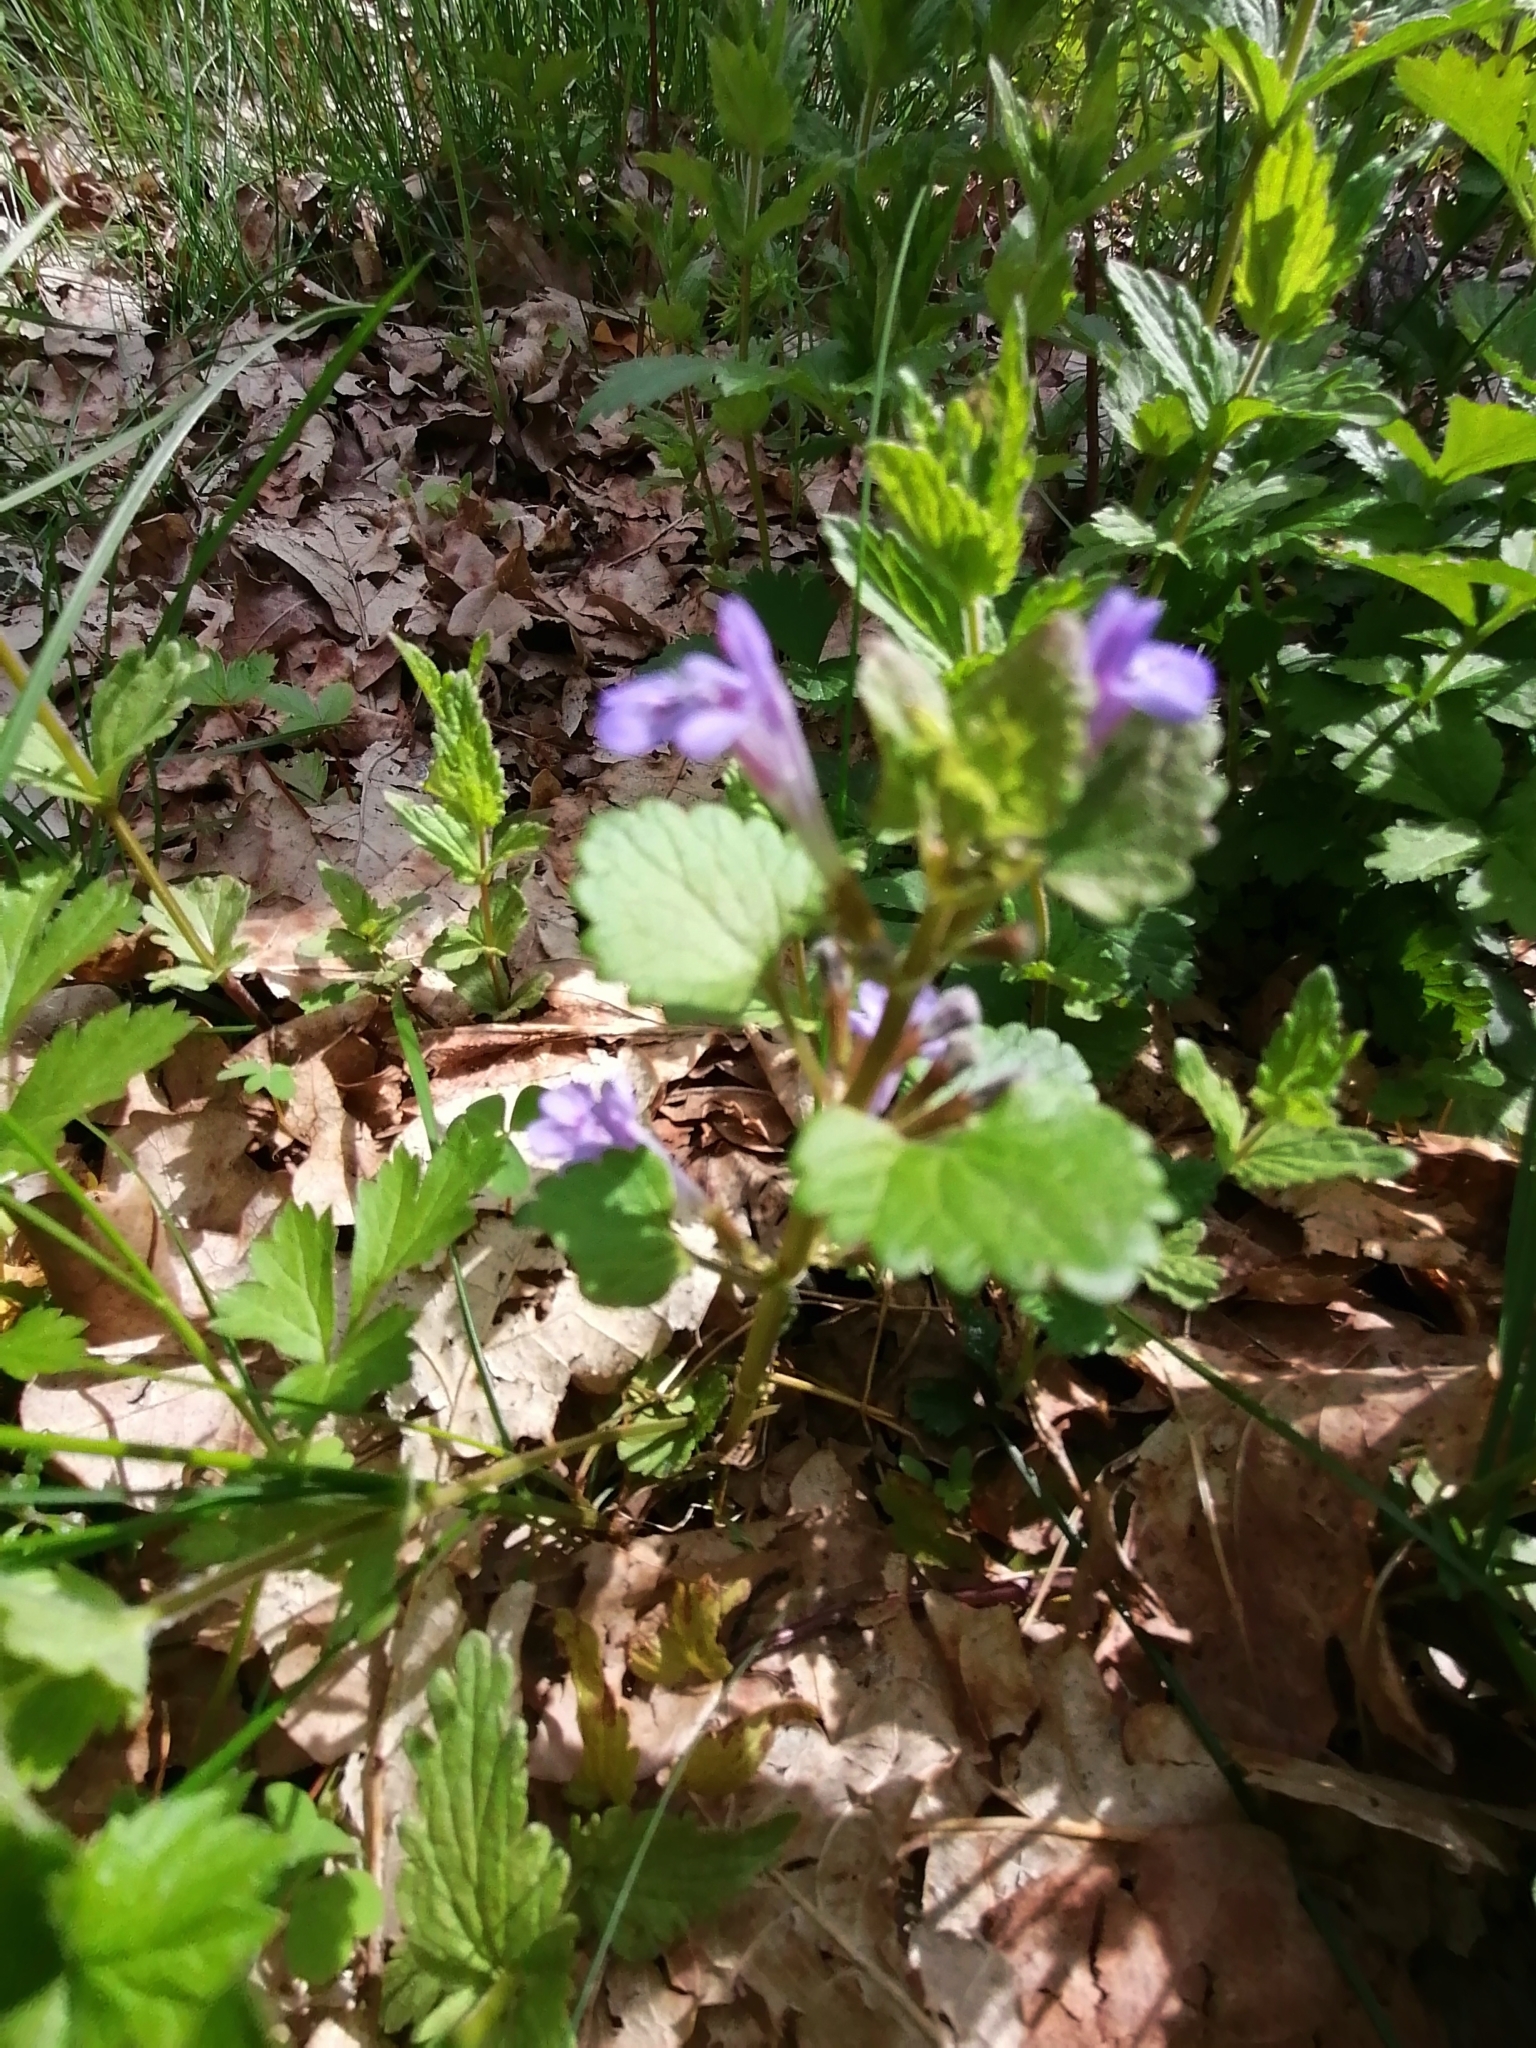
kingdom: Plantae
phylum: Tracheophyta
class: Magnoliopsida
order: Lamiales
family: Lamiaceae
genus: Glechoma
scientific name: Glechoma hederacea
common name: Ground ivy
